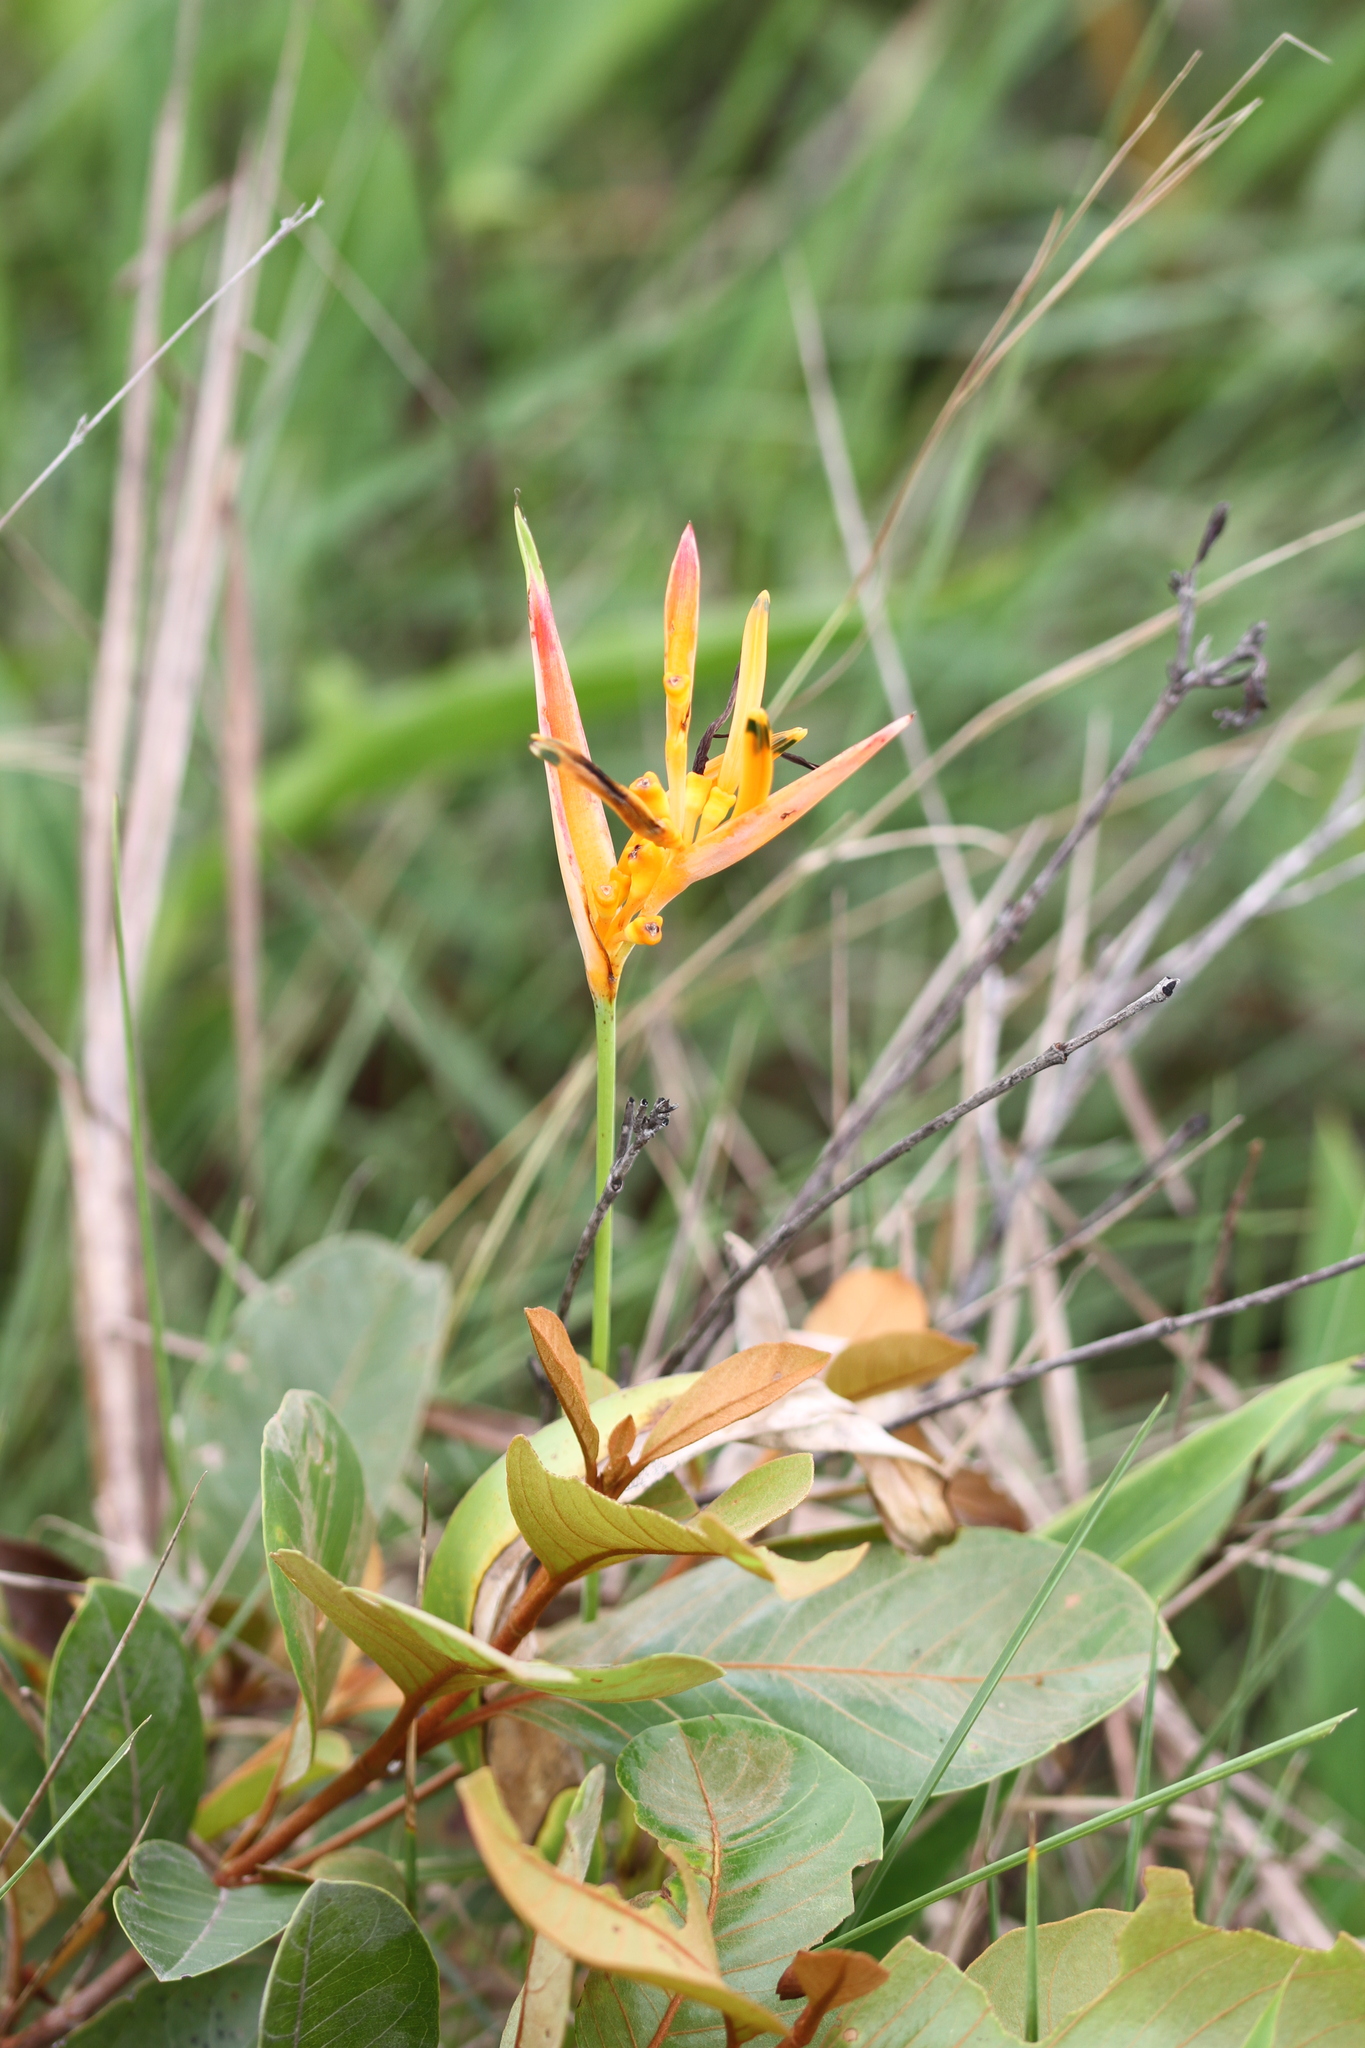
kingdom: Plantae
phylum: Tracheophyta
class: Liliopsida
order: Zingiberales
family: Heliconiaceae
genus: Heliconia
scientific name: Heliconia psittacorum
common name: Parrot's-flower
